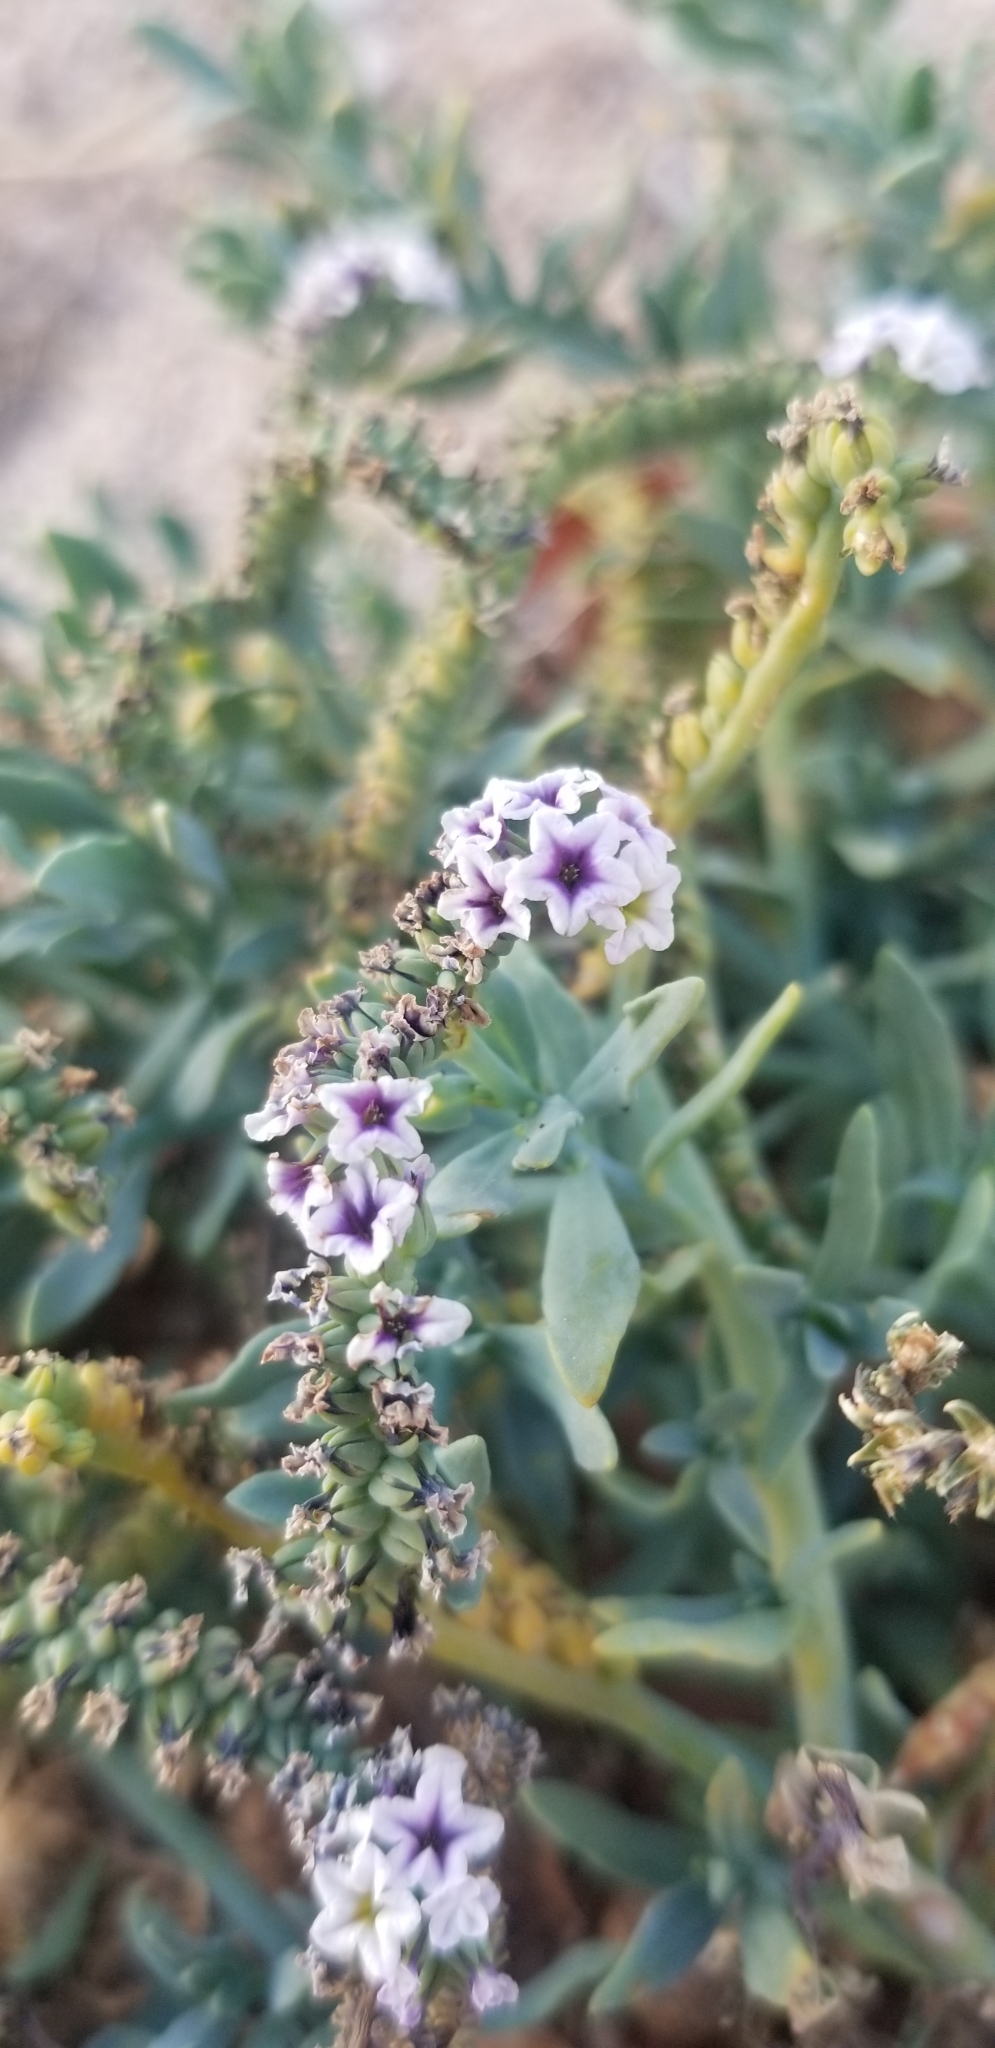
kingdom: Plantae
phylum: Tracheophyta
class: Magnoliopsida
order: Boraginales
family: Heliotropiaceae
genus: Heliotropium
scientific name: Heliotropium curassavicum
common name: Seaside heliotrope
